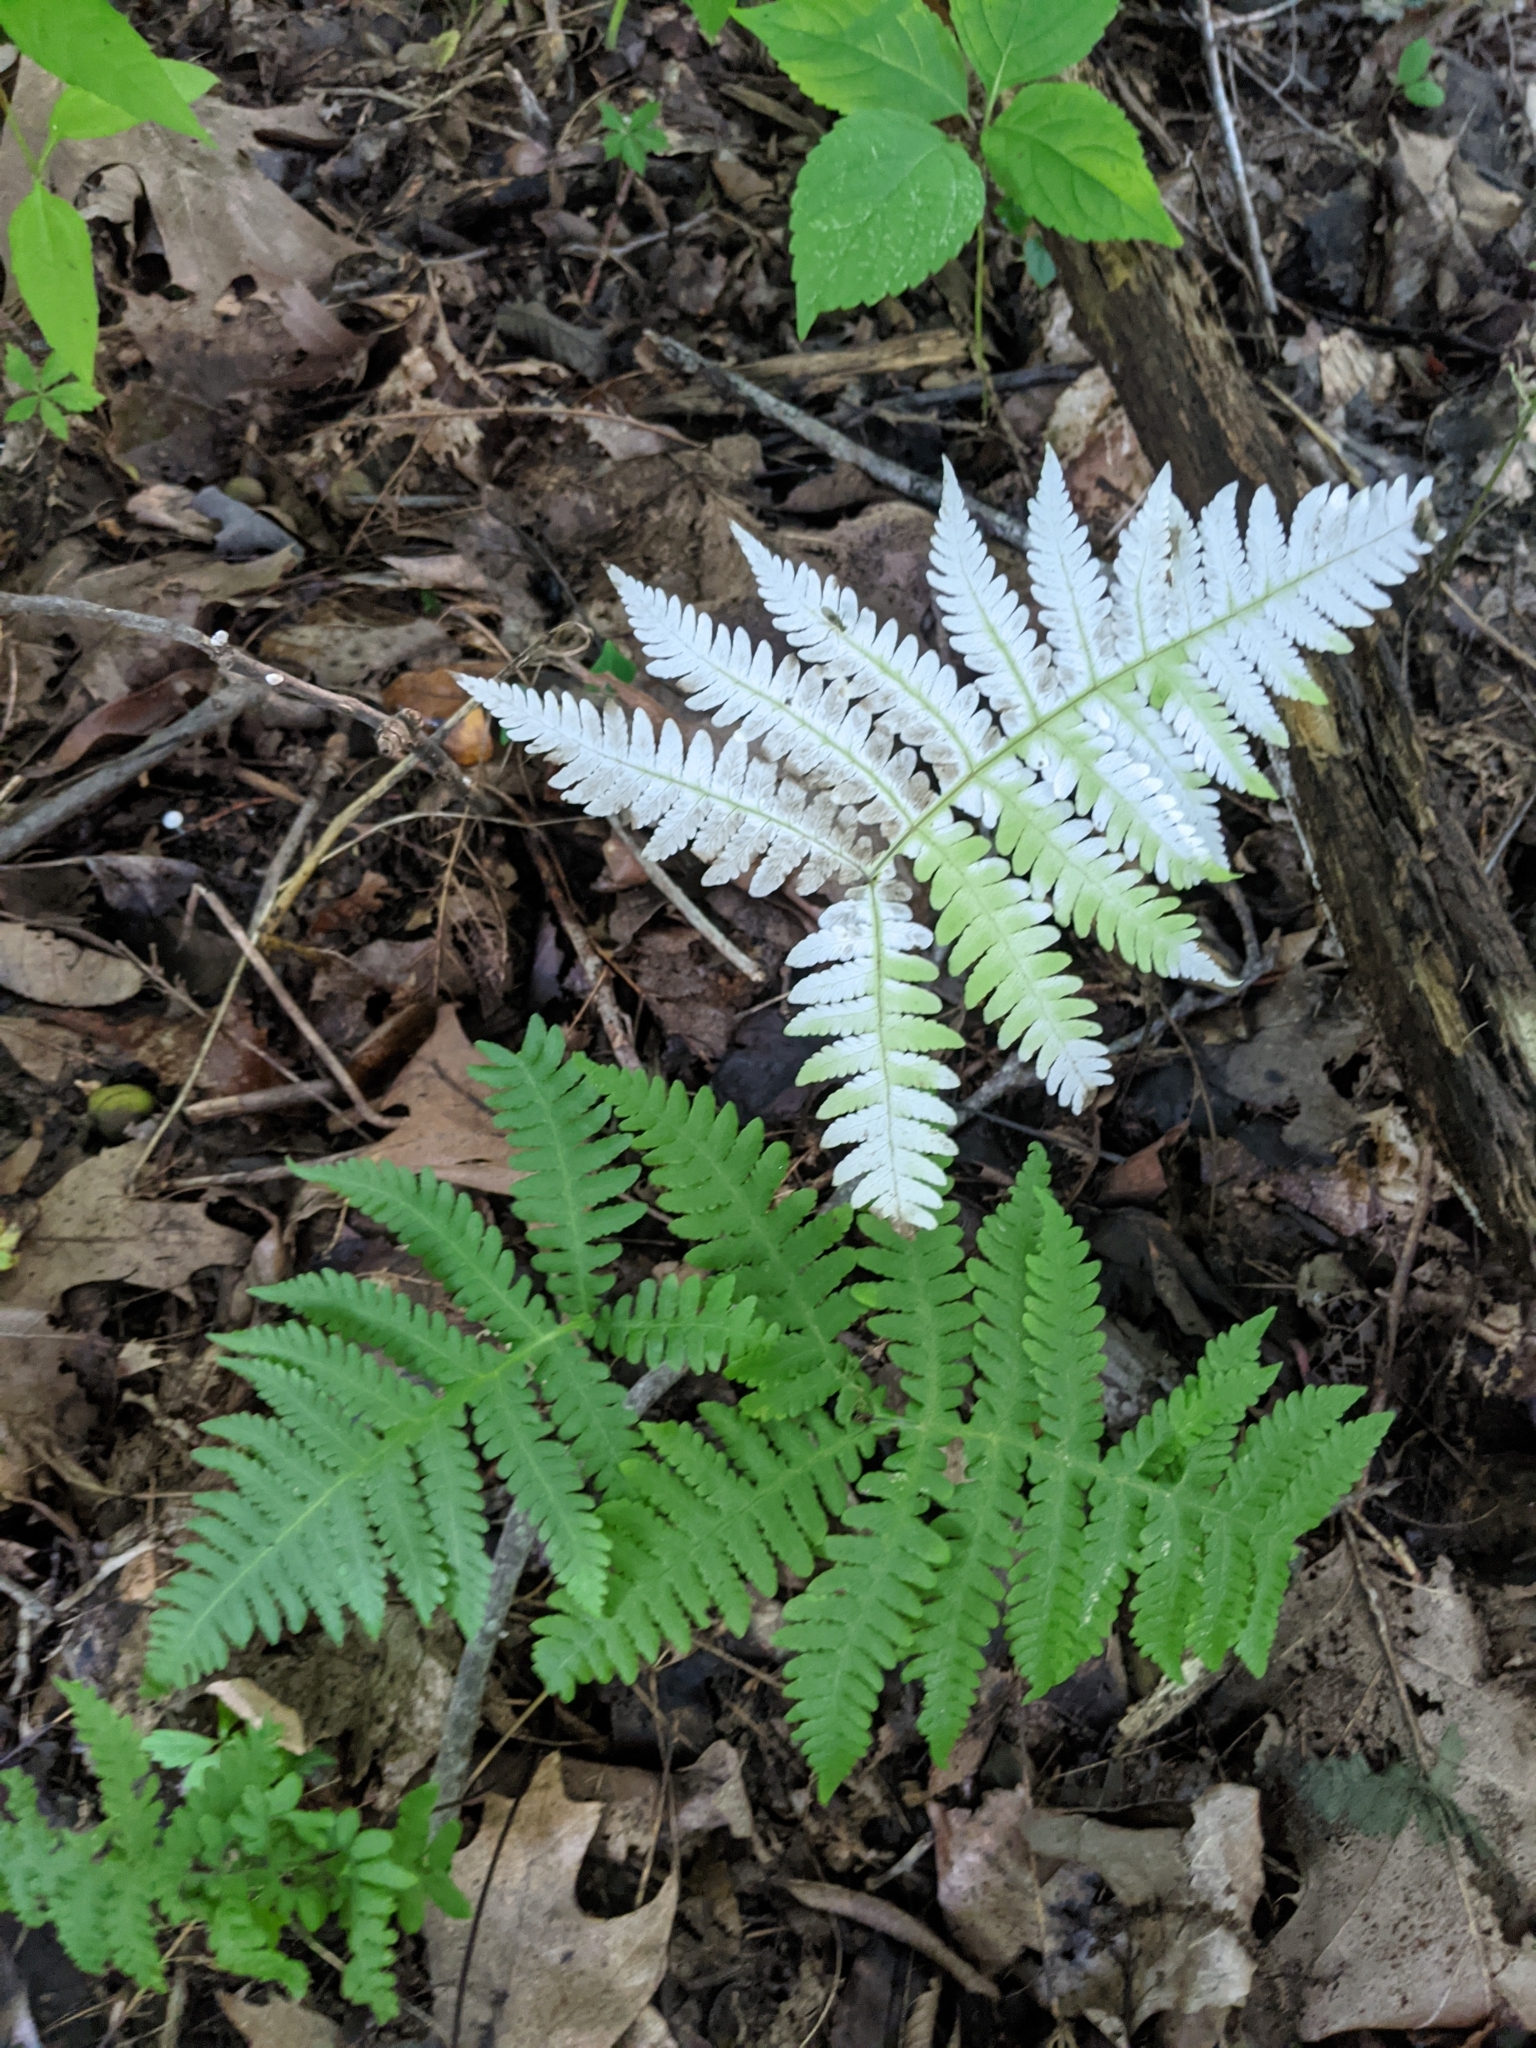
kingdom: Plantae
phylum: Tracheophyta
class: Polypodiopsida
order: Polypodiales
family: Thelypteridaceae
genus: Phegopteris
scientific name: Phegopteris hexagonoptera
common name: Broad beech fern
